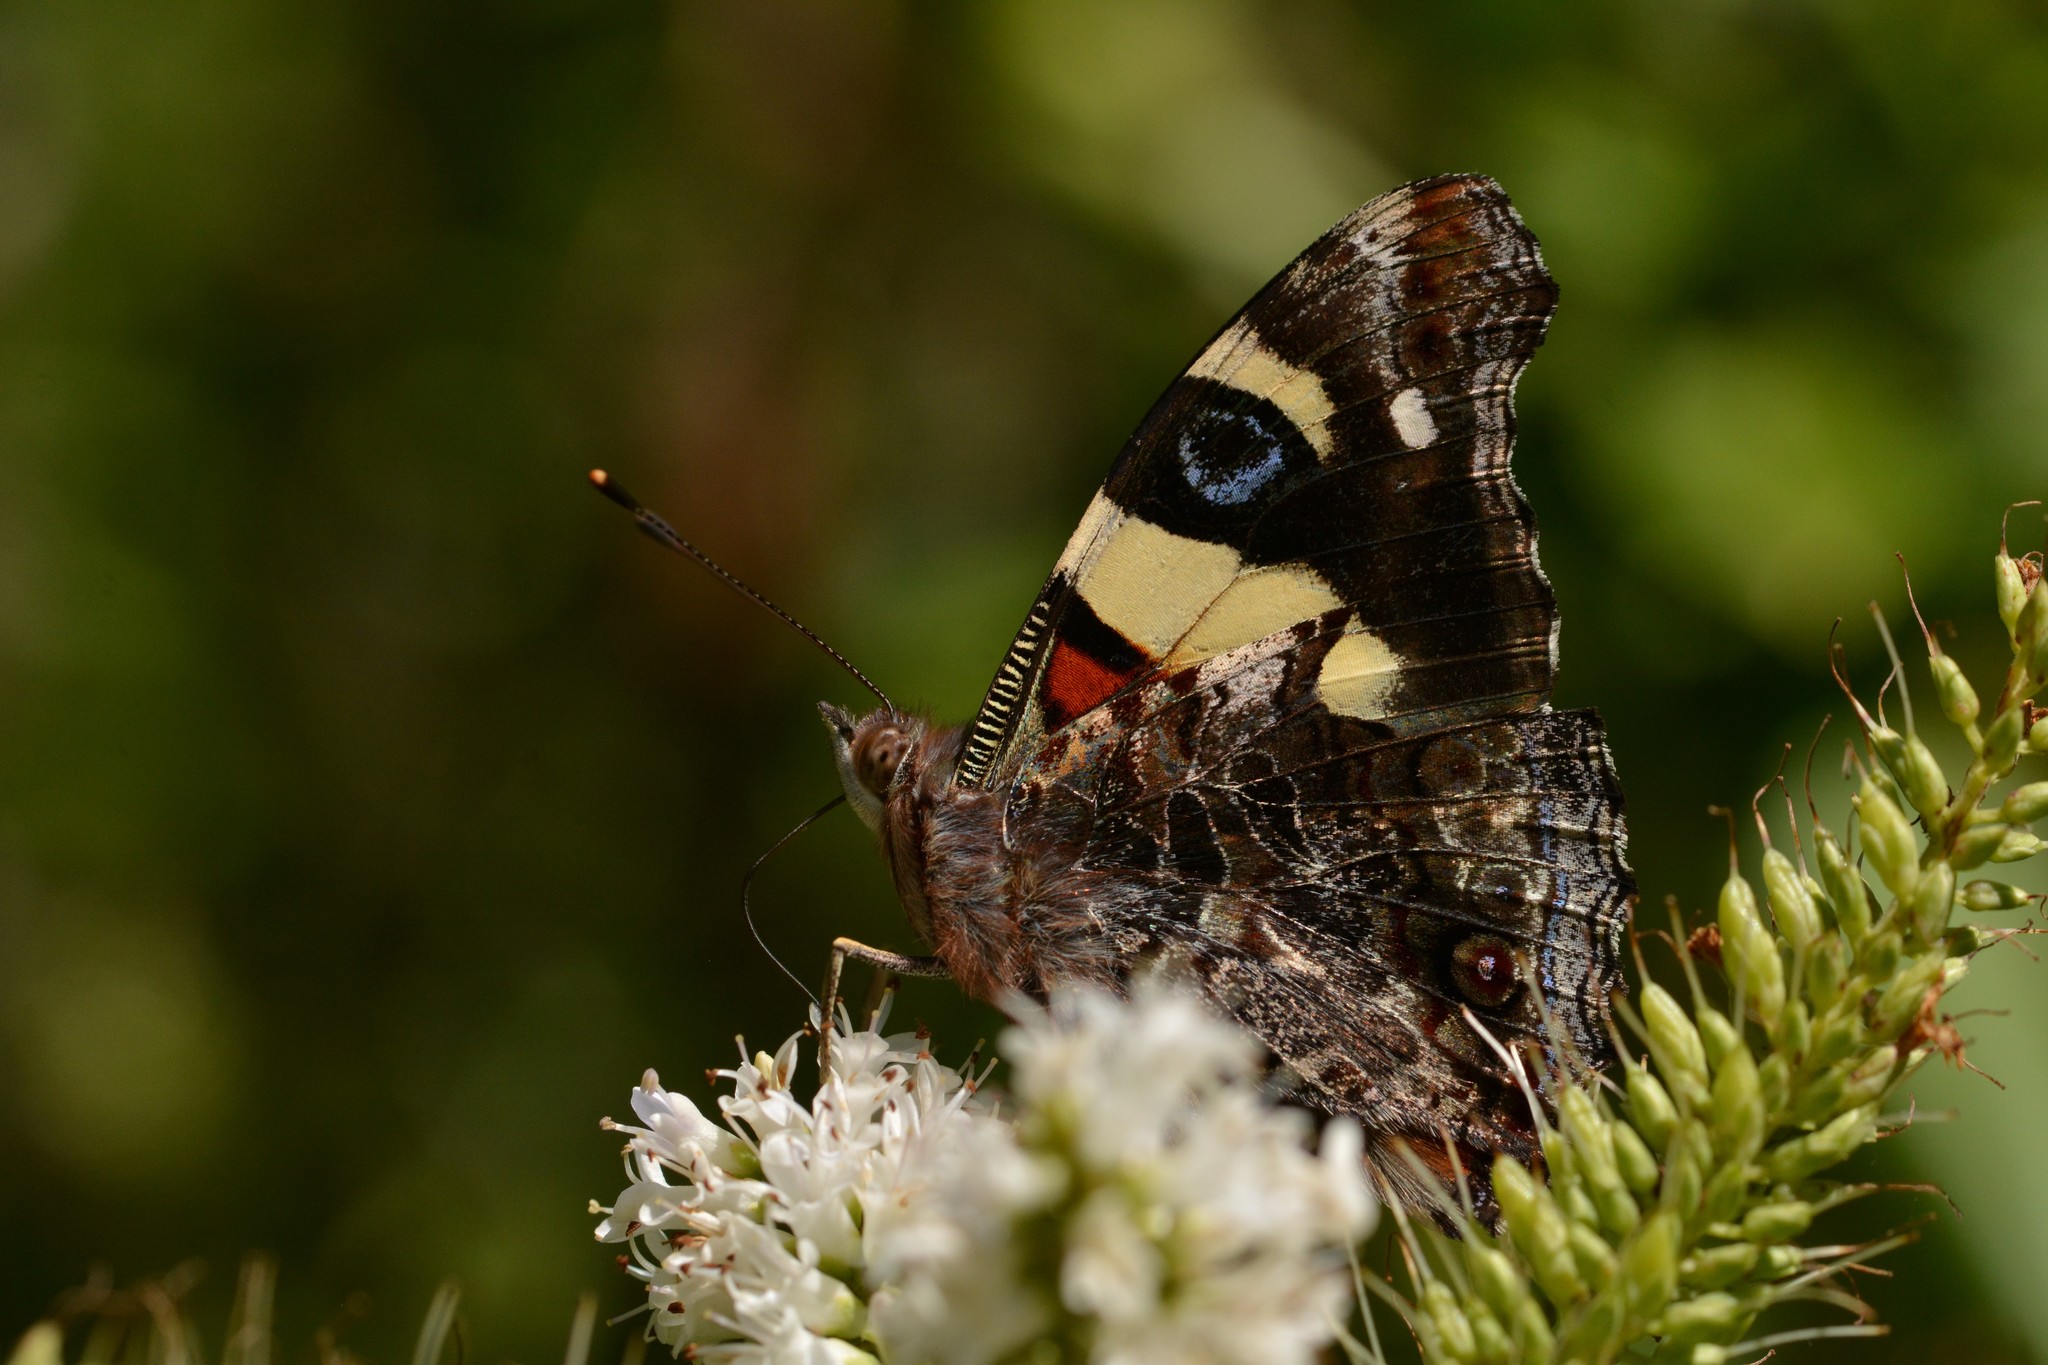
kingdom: Animalia
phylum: Arthropoda
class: Insecta
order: Lepidoptera
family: Nymphalidae
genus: Vanessa
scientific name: Vanessa itea
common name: Yellow admiral
